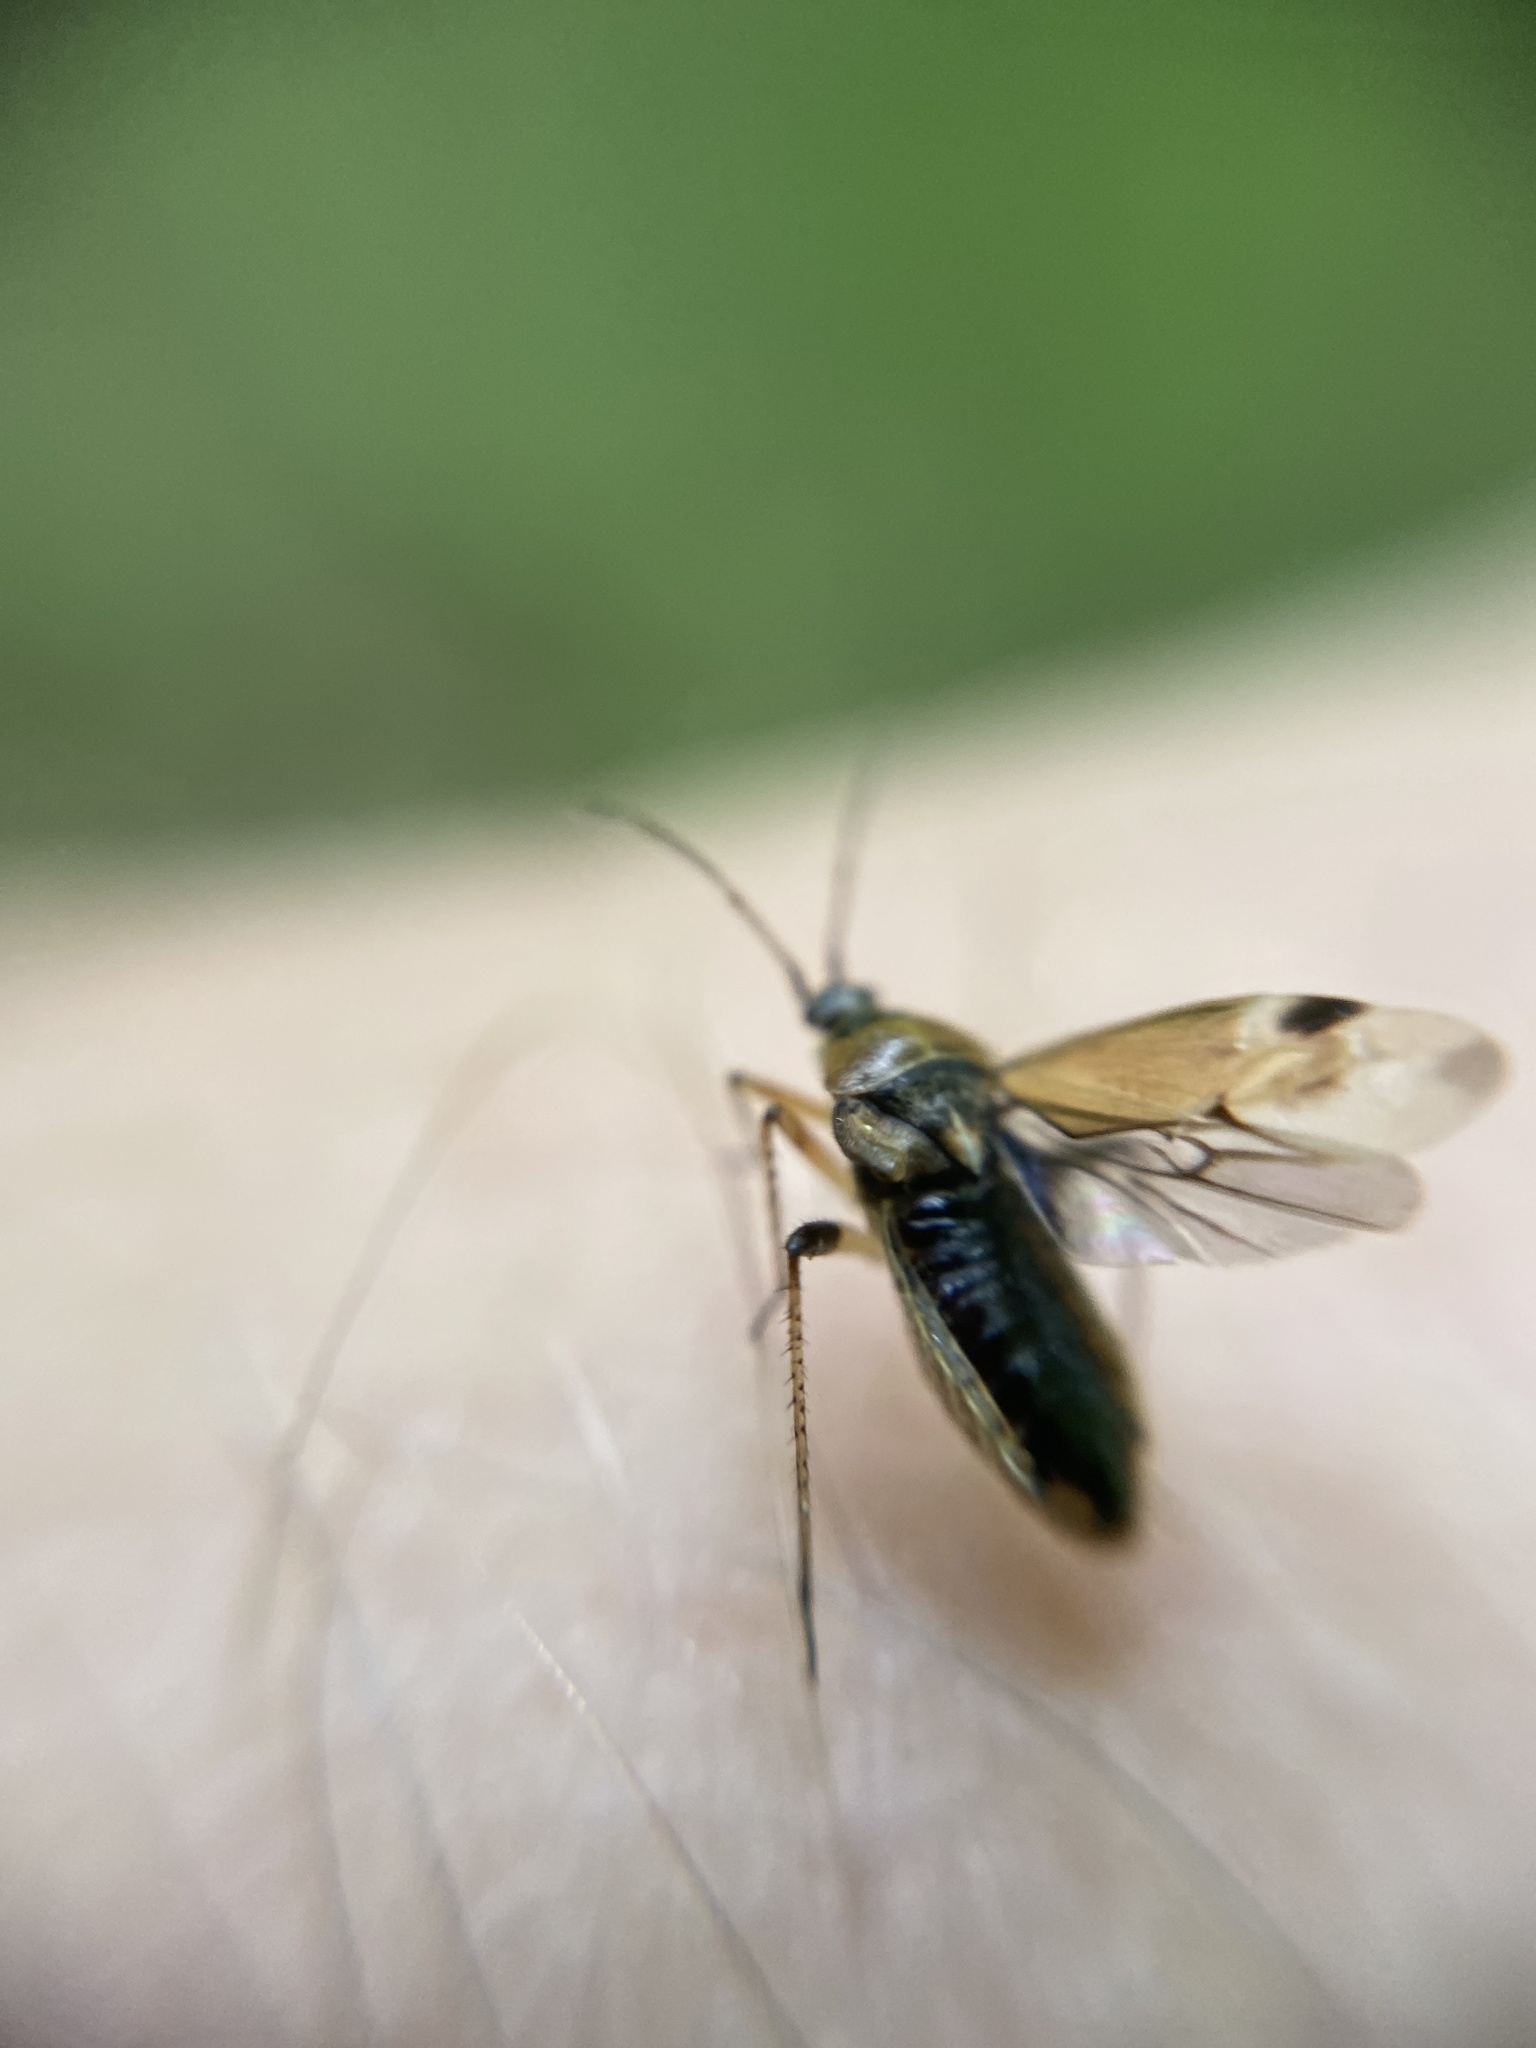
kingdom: Animalia
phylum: Arthropoda
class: Insecta
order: Hemiptera
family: Miridae
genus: Harpocera
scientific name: Harpocera thoracica
